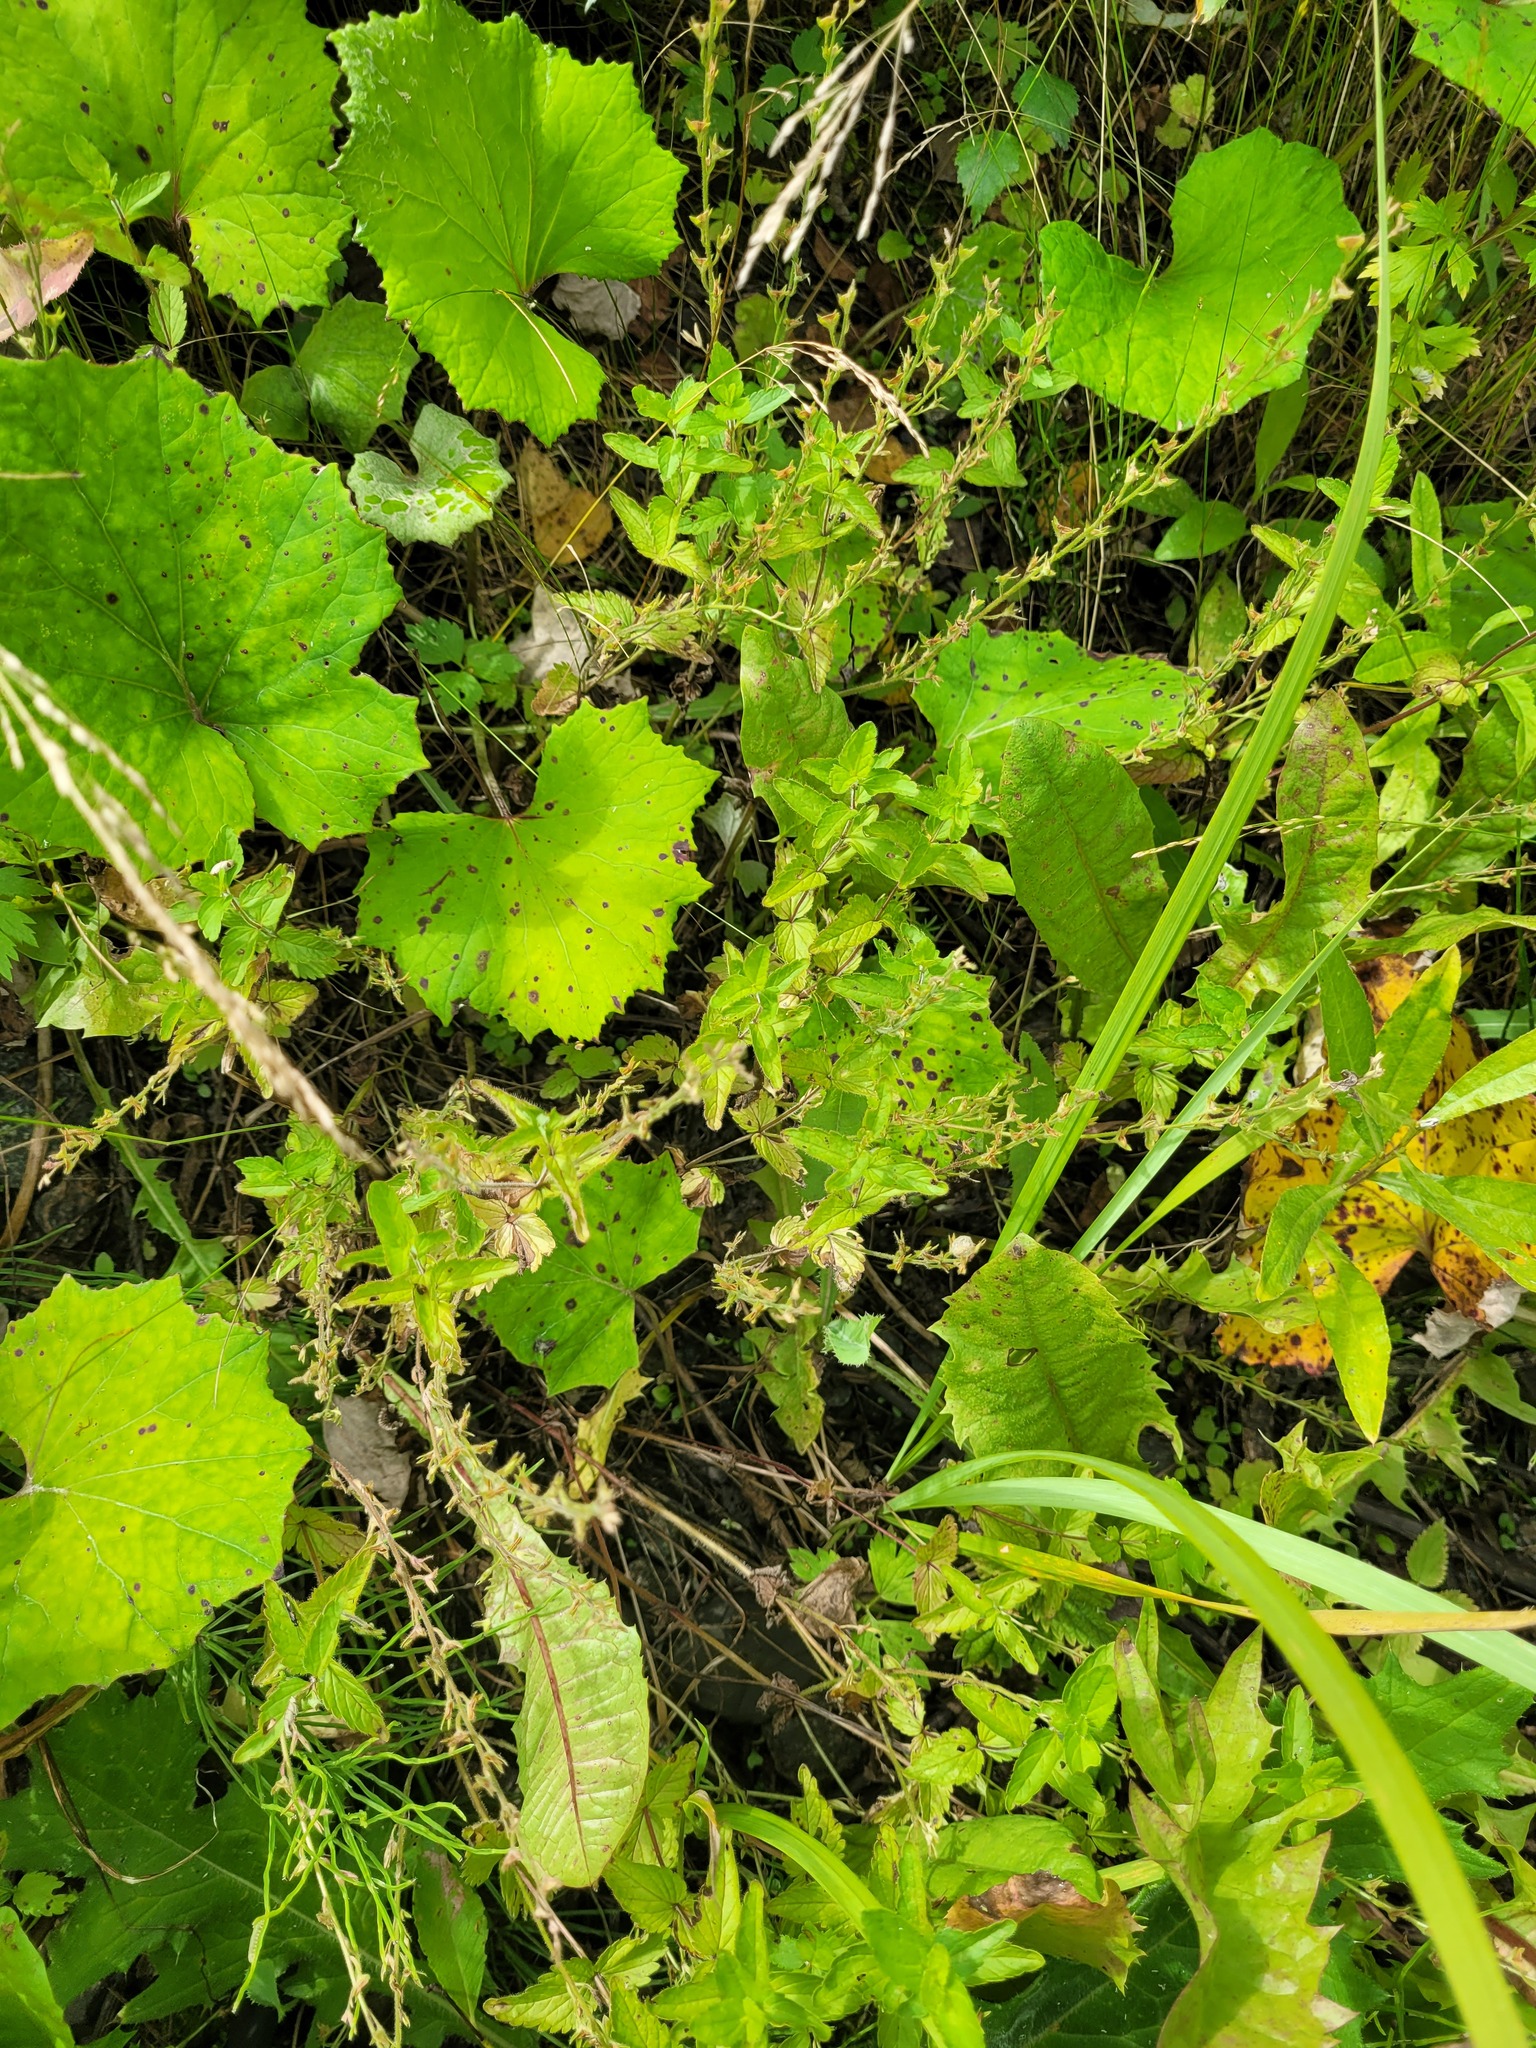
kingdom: Plantae
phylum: Tracheophyta
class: Magnoliopsida
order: Lamiales
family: Plantaginaceae
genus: Veronica
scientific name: Veronica chamaedrys
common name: Germander speedwell
